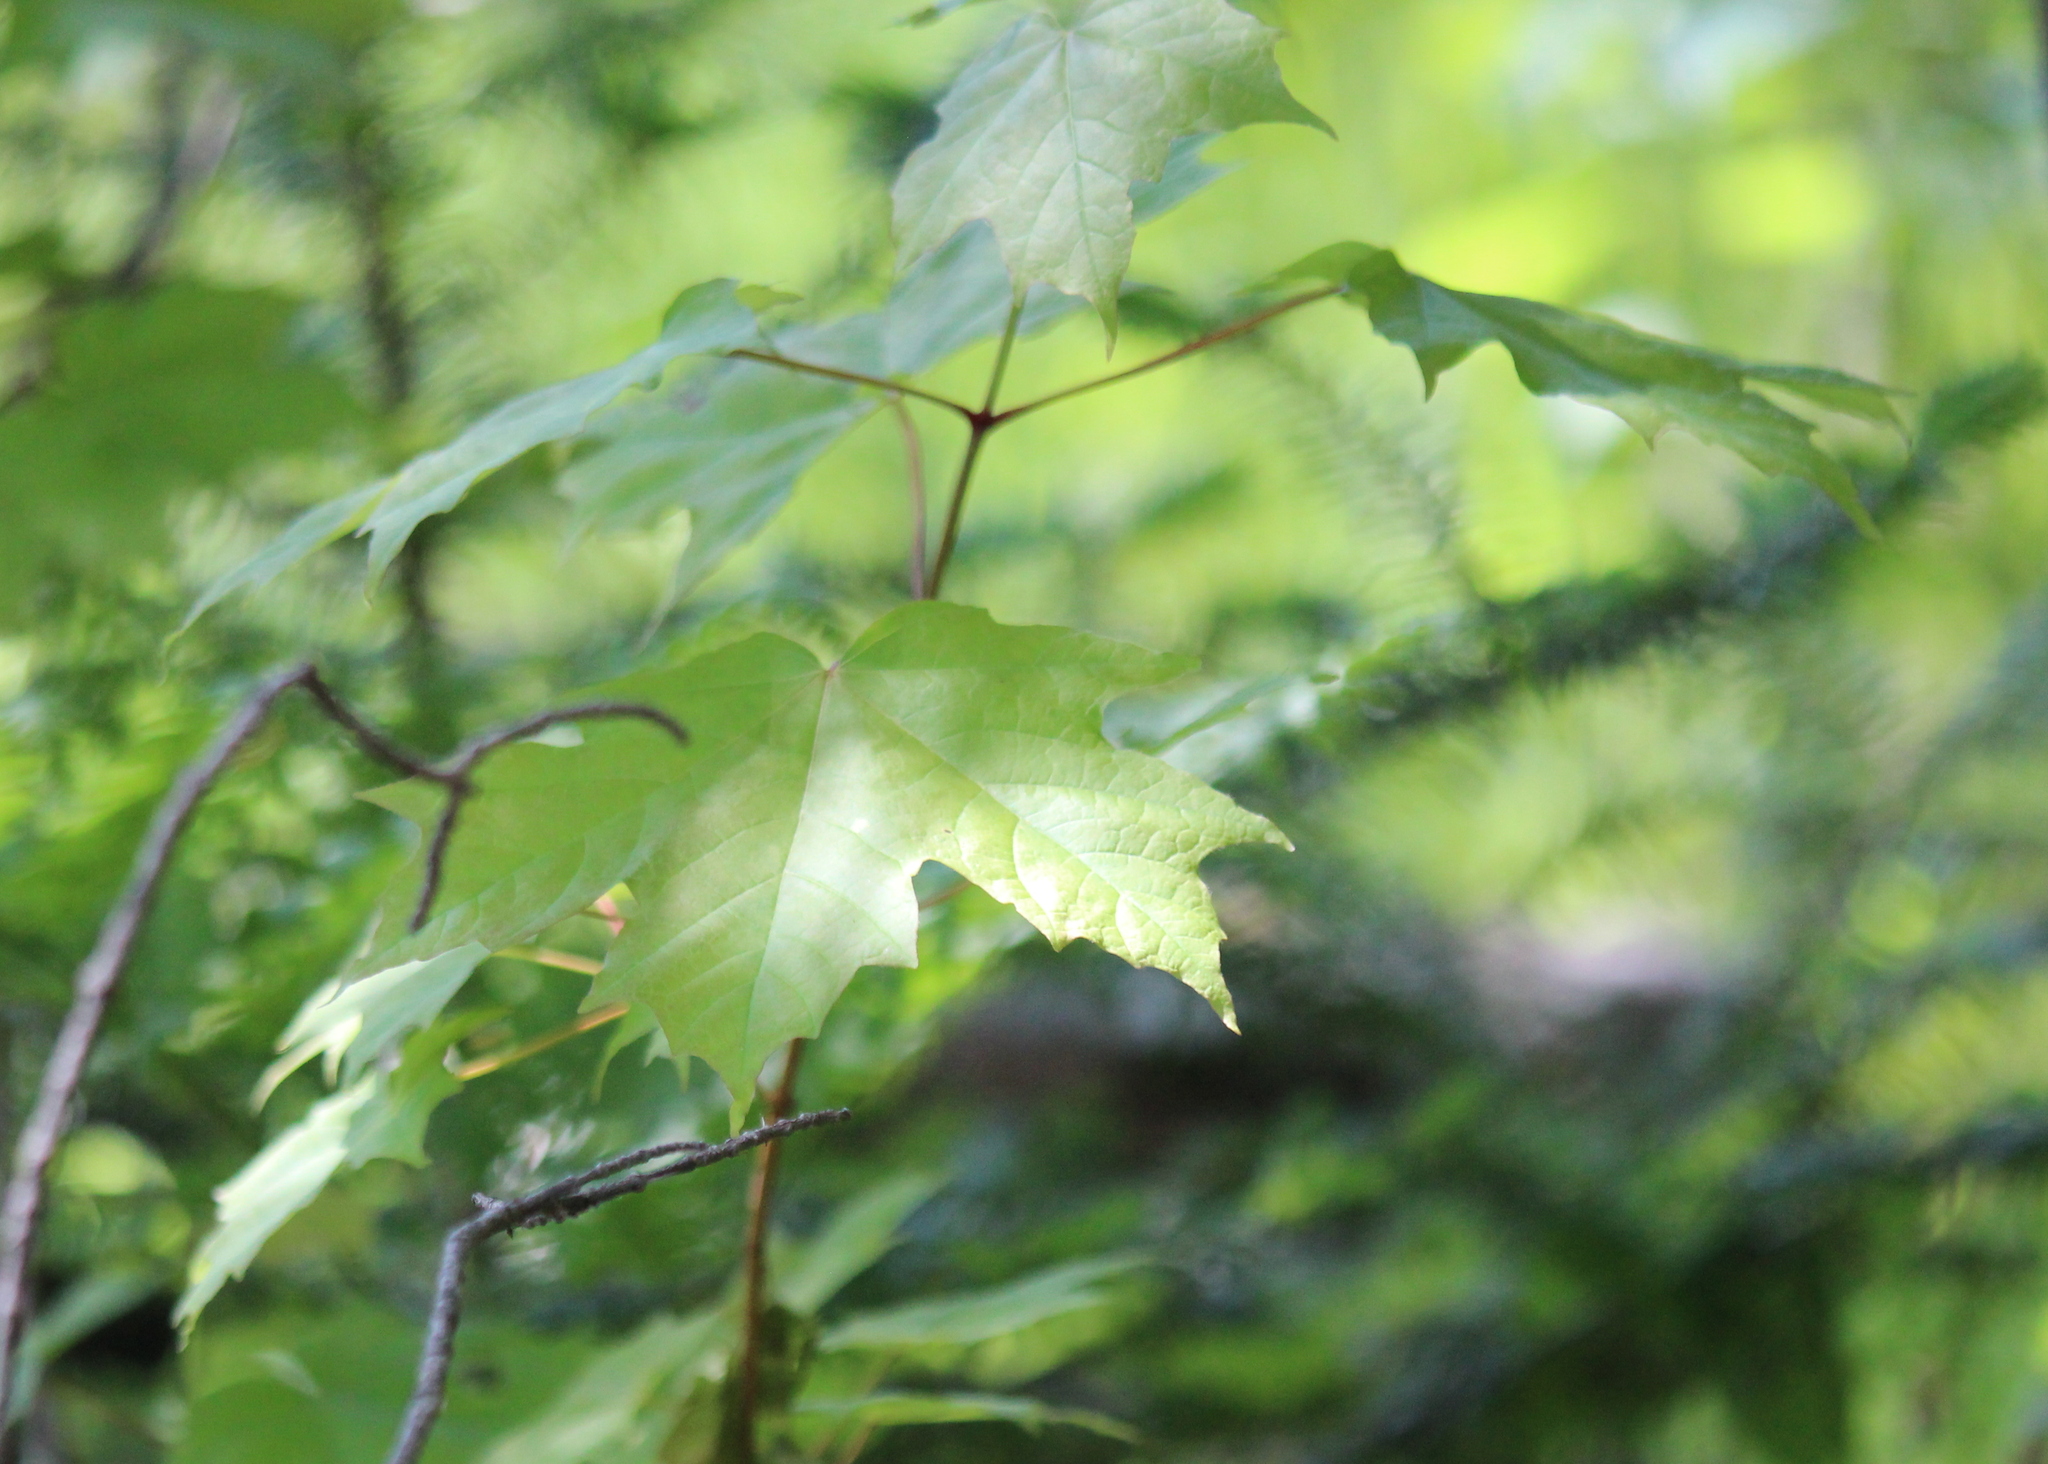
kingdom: Plantae
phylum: Tracheophyta
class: Magnoliopsida
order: Sapindales
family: Sapindaceae
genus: Acer
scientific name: Acer saccharum
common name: Sugar maple
